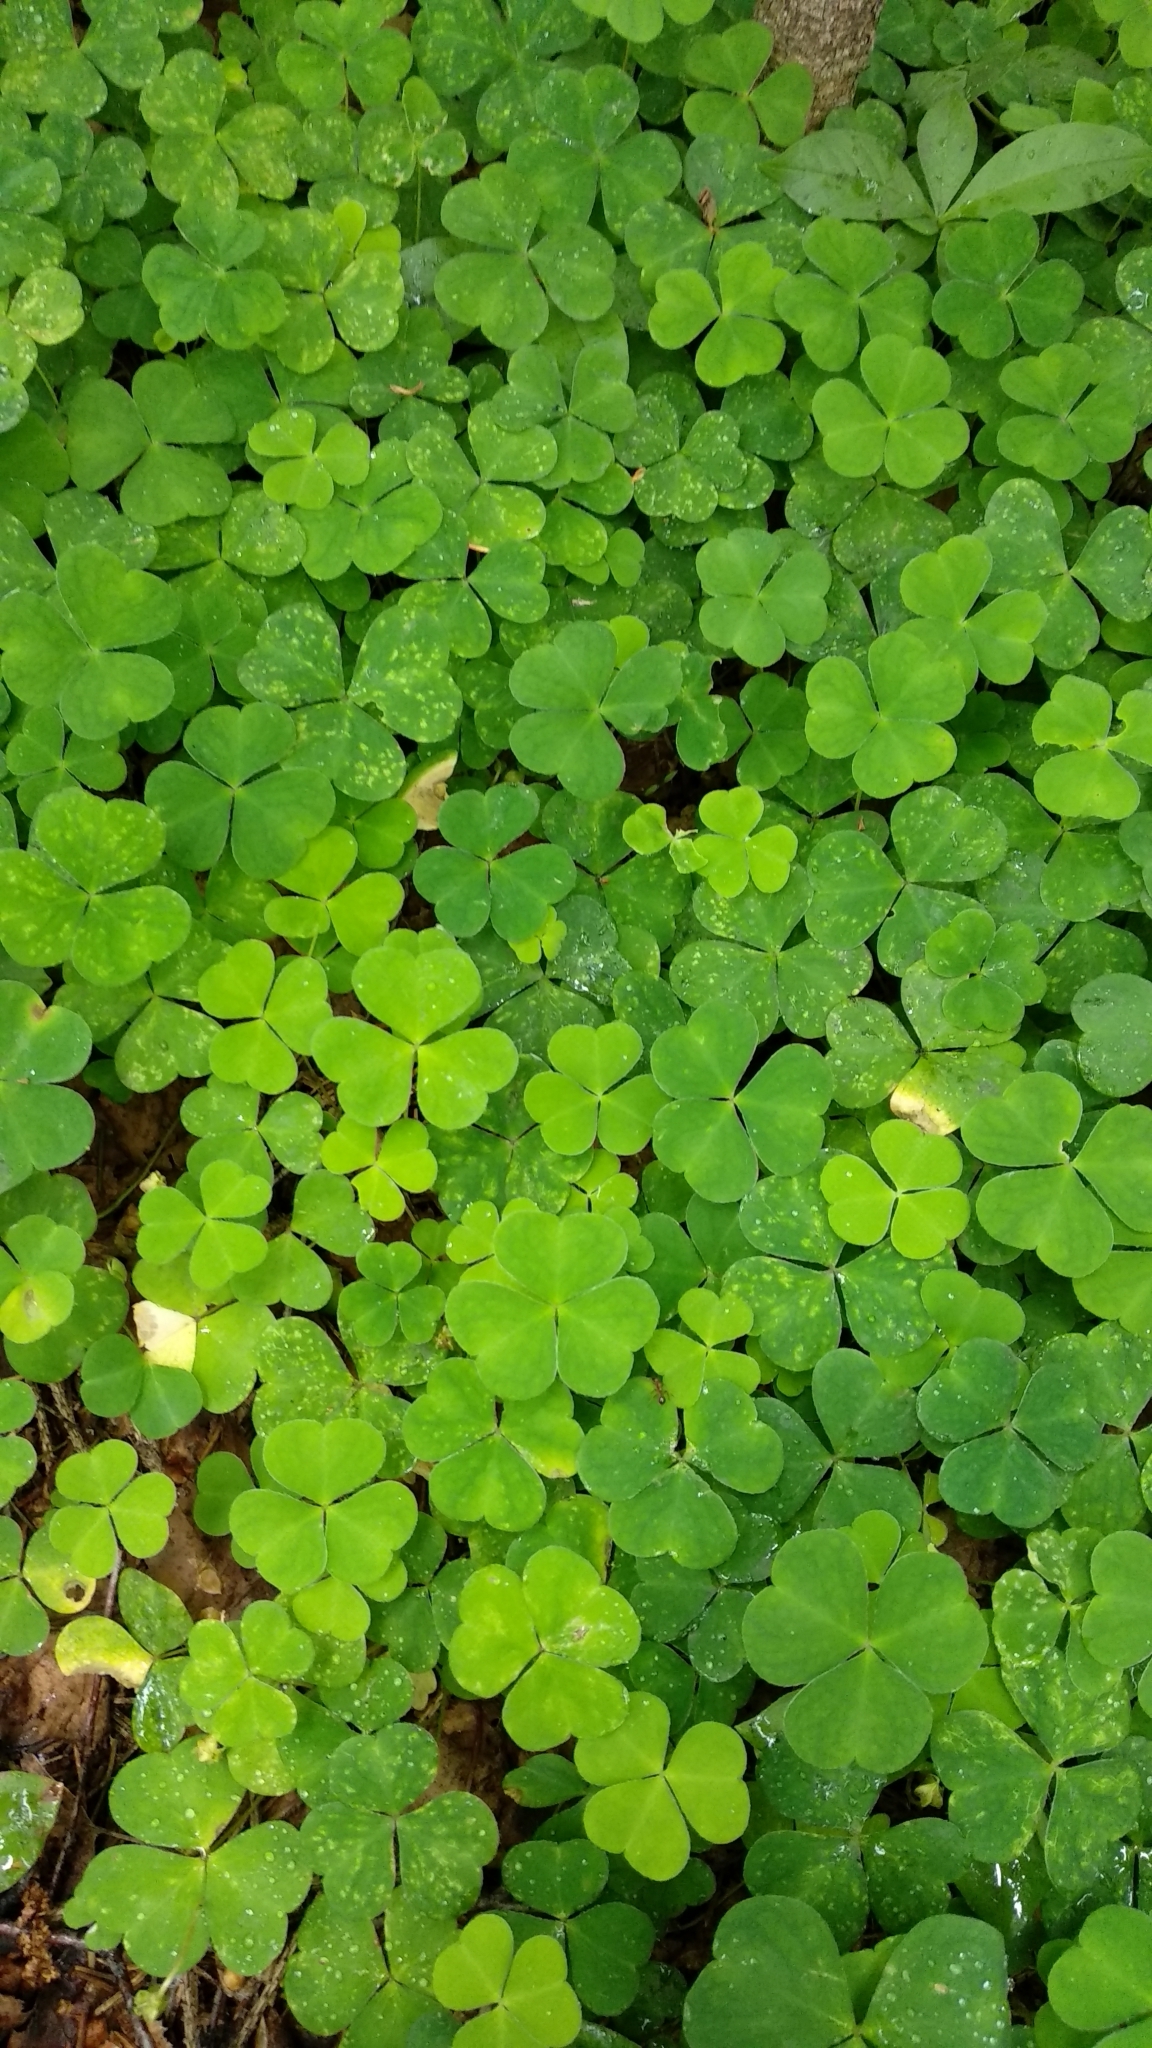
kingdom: Plantae
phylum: Tracheophyta
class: Magnoliopsida
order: Oxalidales
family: Oxalidaceae
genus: Oxalis
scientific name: Oxalis acetosella
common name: Wood-sorrel
